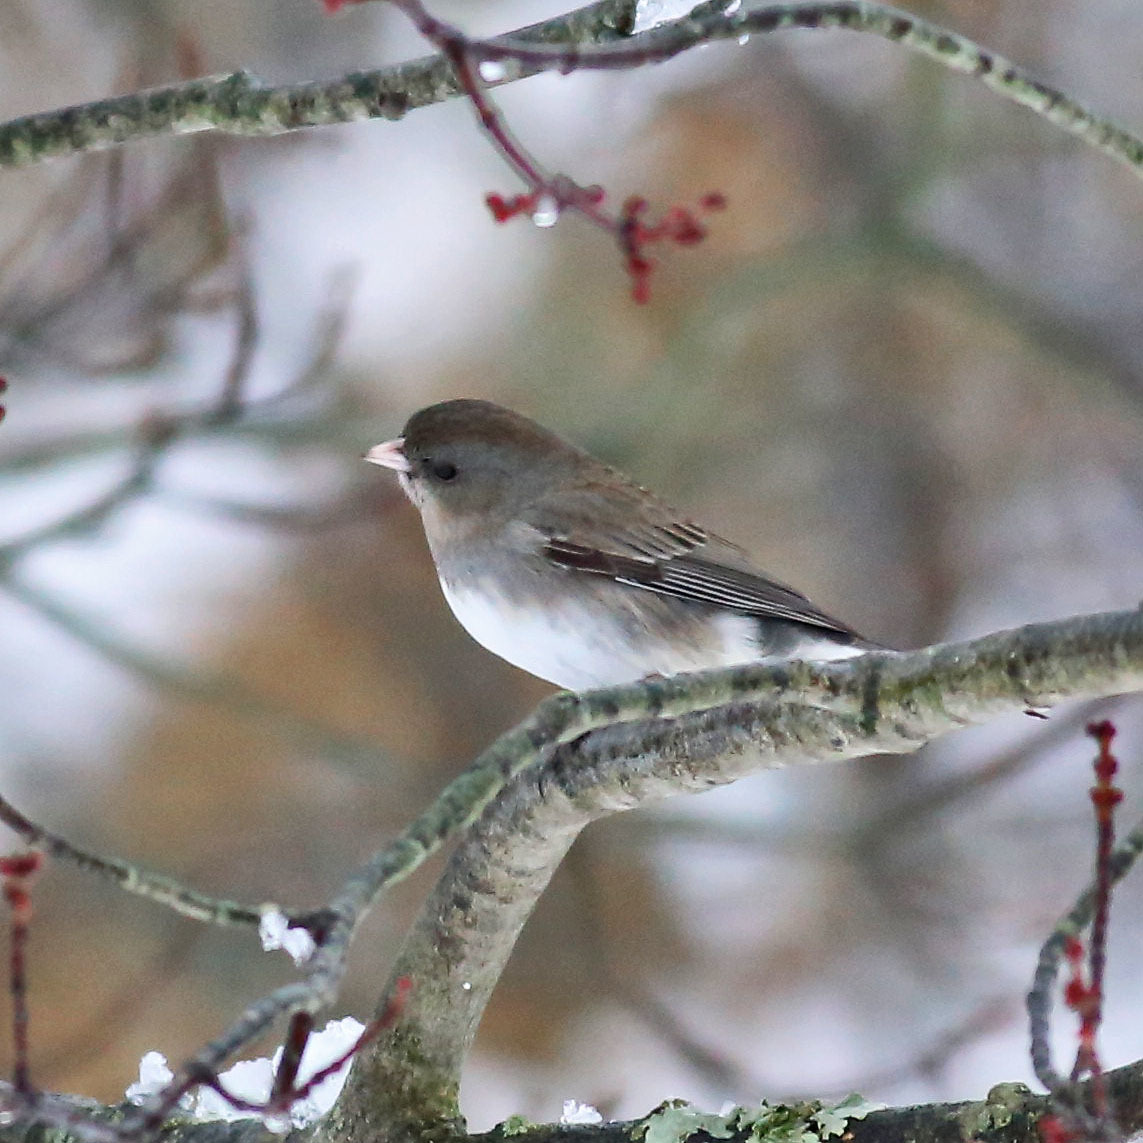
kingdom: Animalia
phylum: Chordata
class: Aves
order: Passeriformes
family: Passerellidae
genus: Junco
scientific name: Junco hyemalis
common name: Dark-eyed junco
